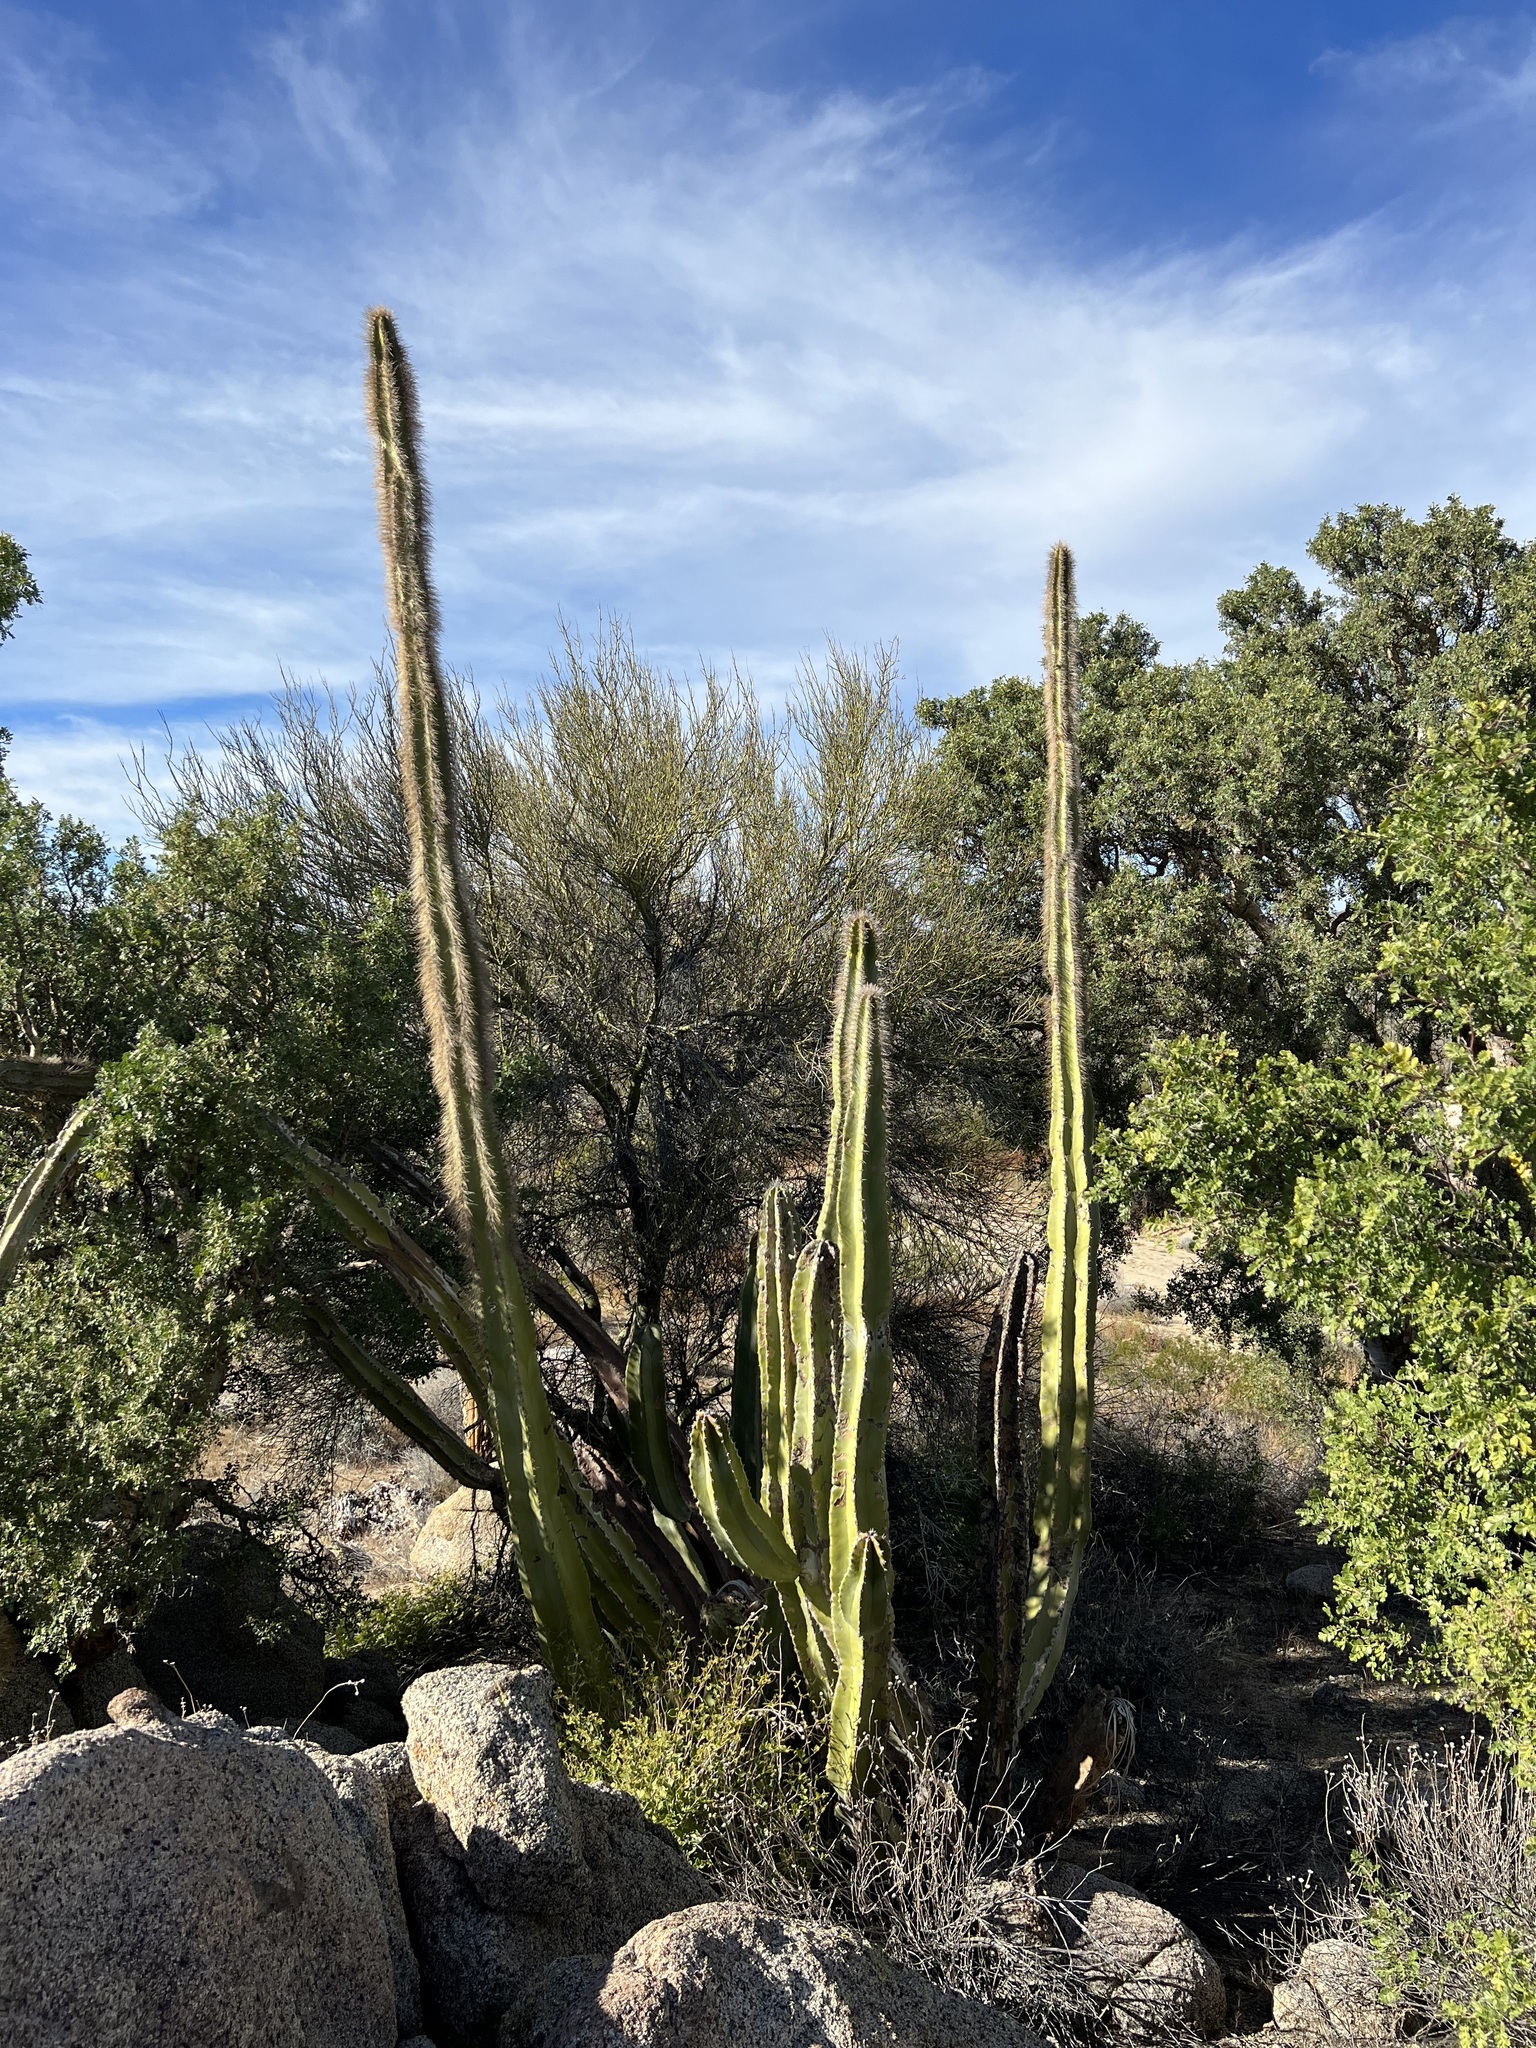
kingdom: Plantae
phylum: Tracheophyta
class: Magnoliopsida
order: Caryophyllales
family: Cactaceae
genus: Pachycereus
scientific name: Pachycereus schottii
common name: Senita cactus
